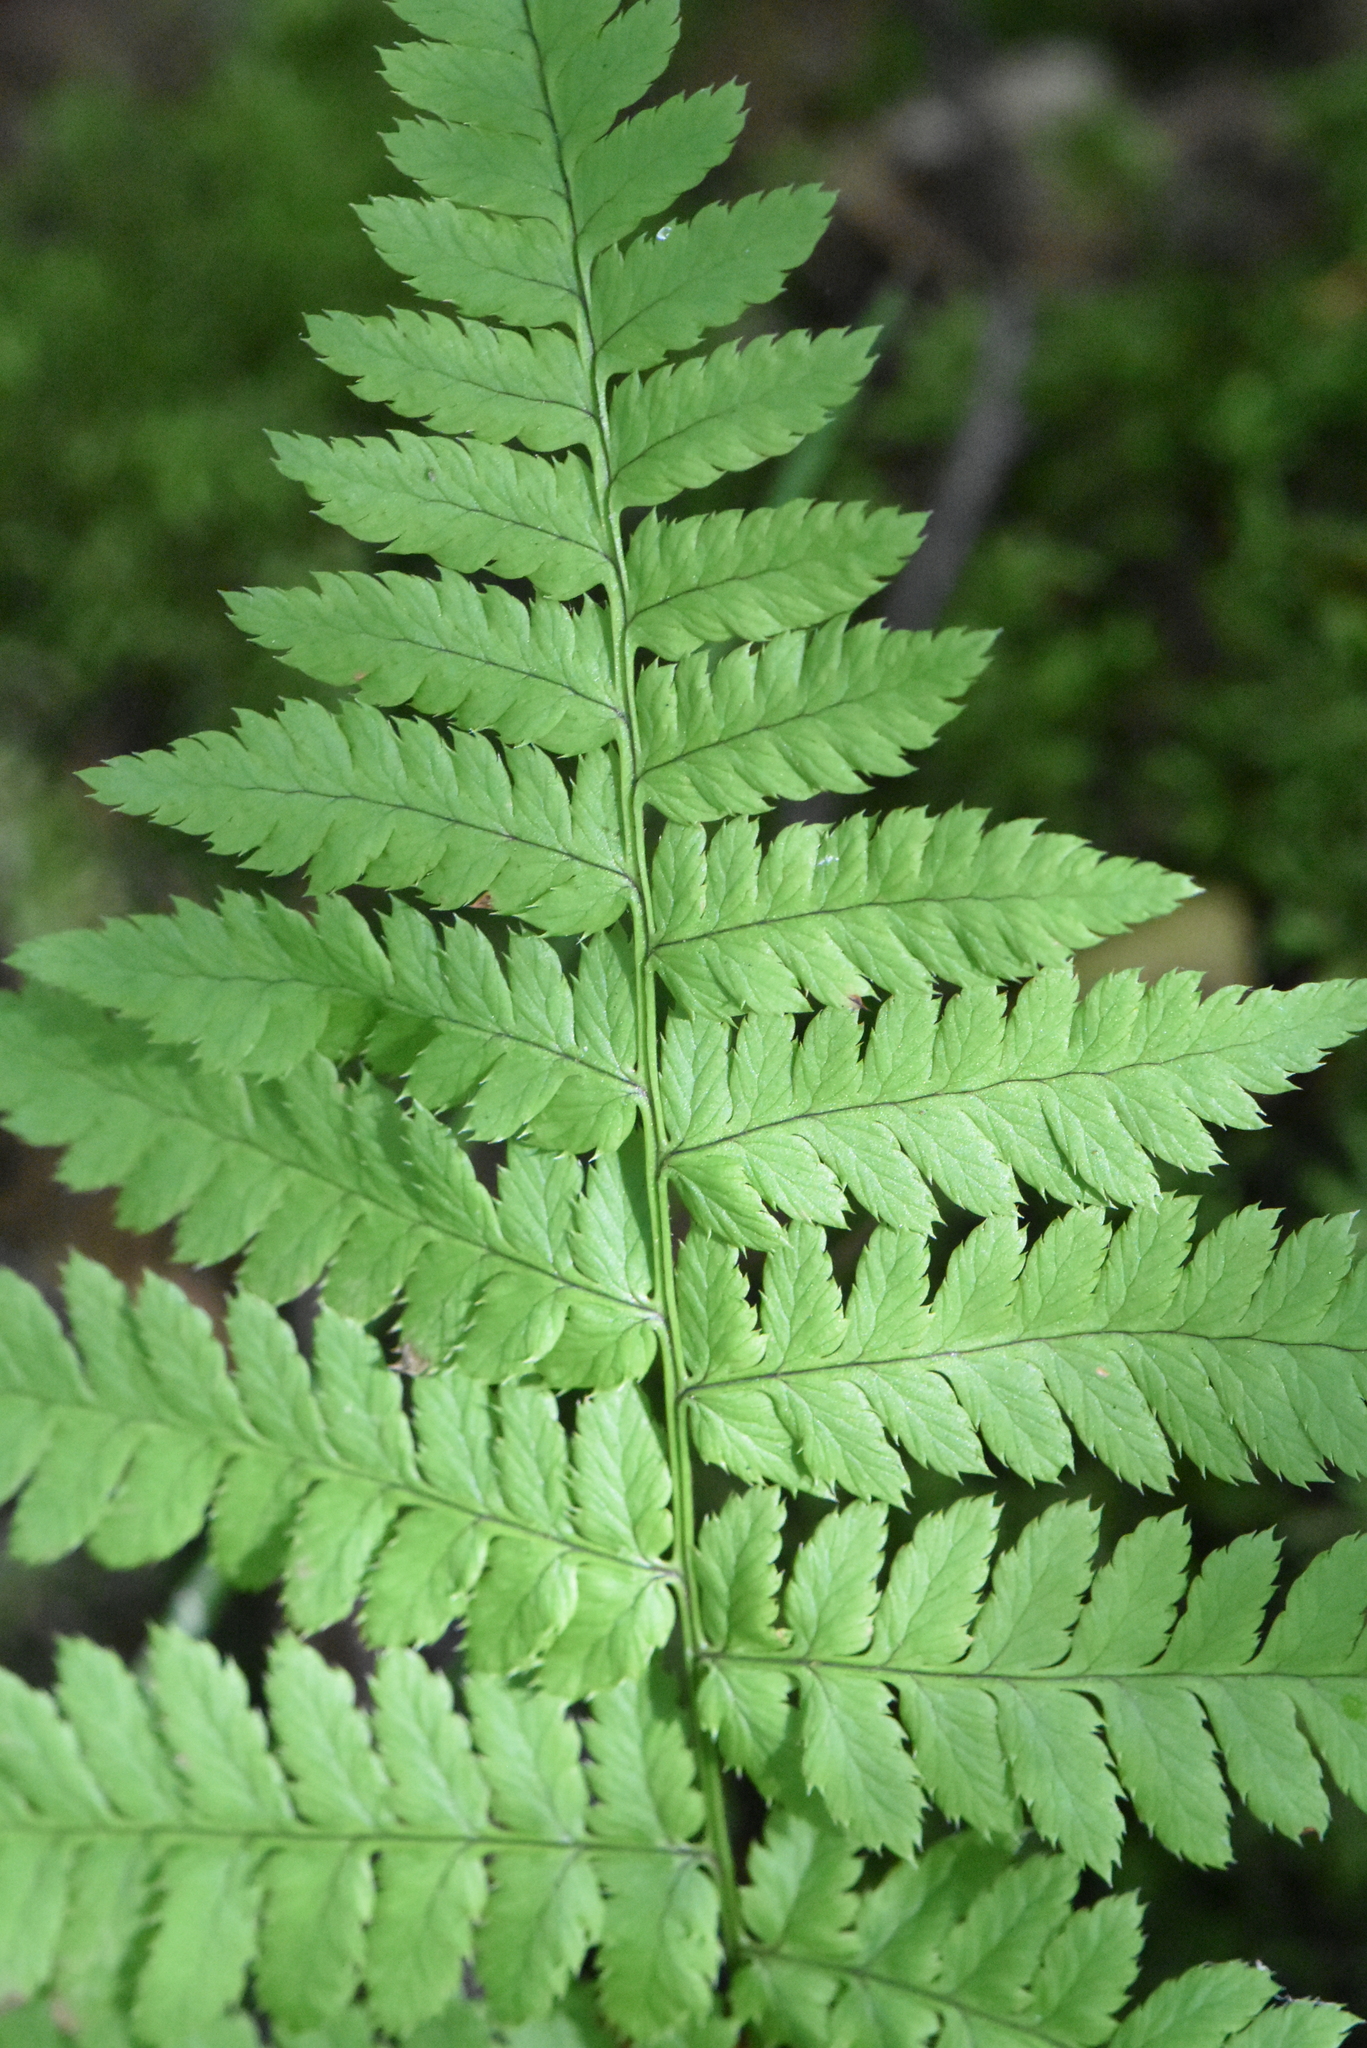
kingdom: Plantae
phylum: Tracheophyta
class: Polypodiopsida
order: Polypodiales
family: Dryopteridaceae
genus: Dryopteris
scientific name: Dryopteris carthusiana
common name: Narrow buckler-fern
